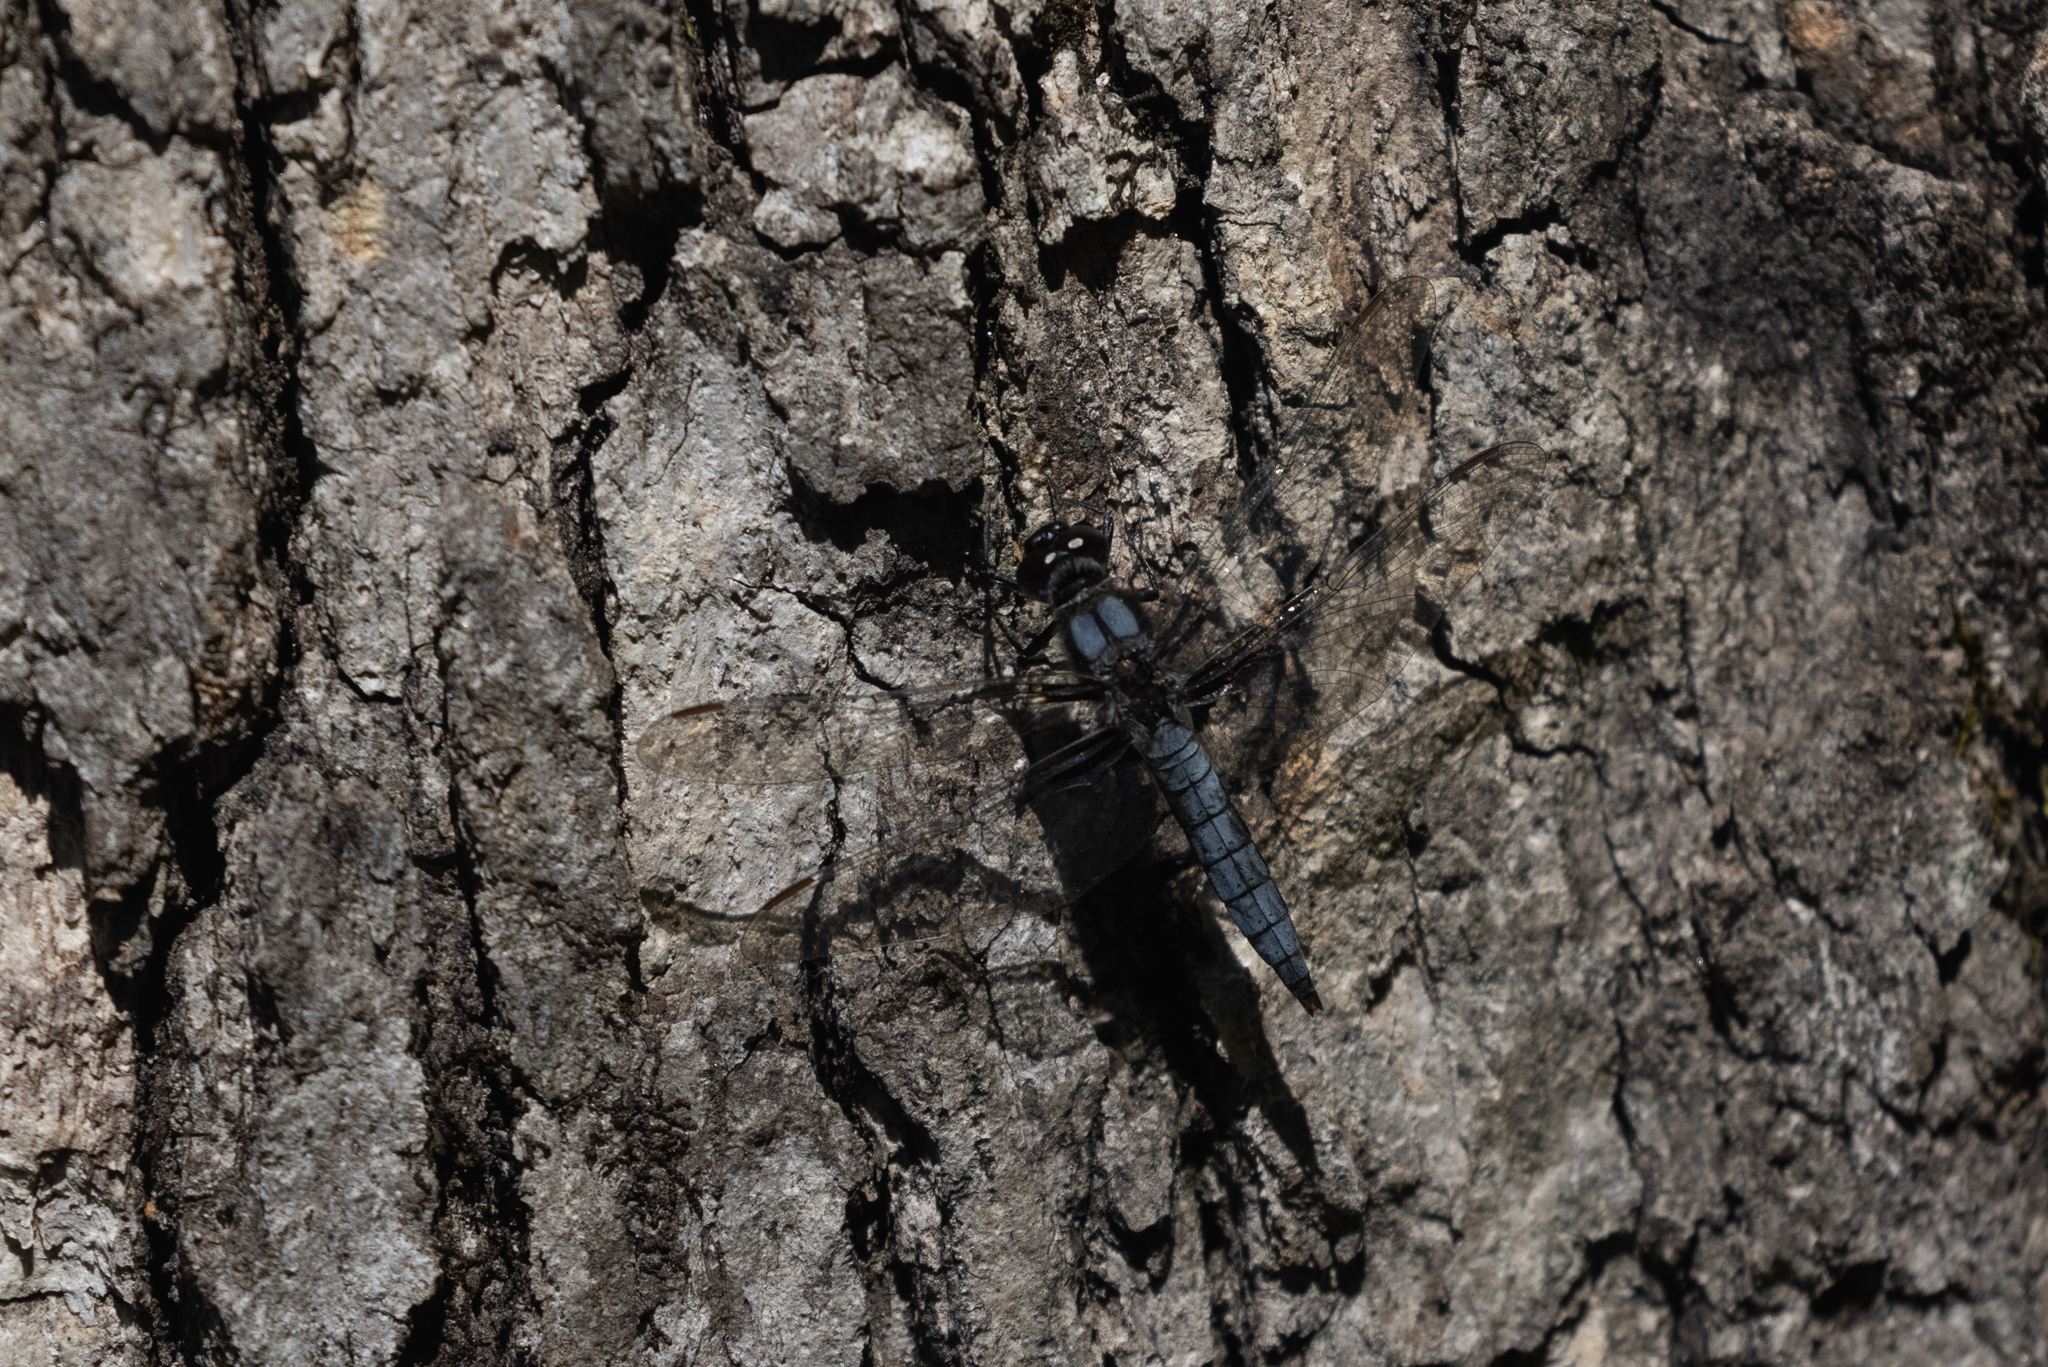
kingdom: Animalia
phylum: Arthropoda
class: Insecta
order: Odonata
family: Libellulidae
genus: Ladona
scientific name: Ladona deplanata
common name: Blue corporal
